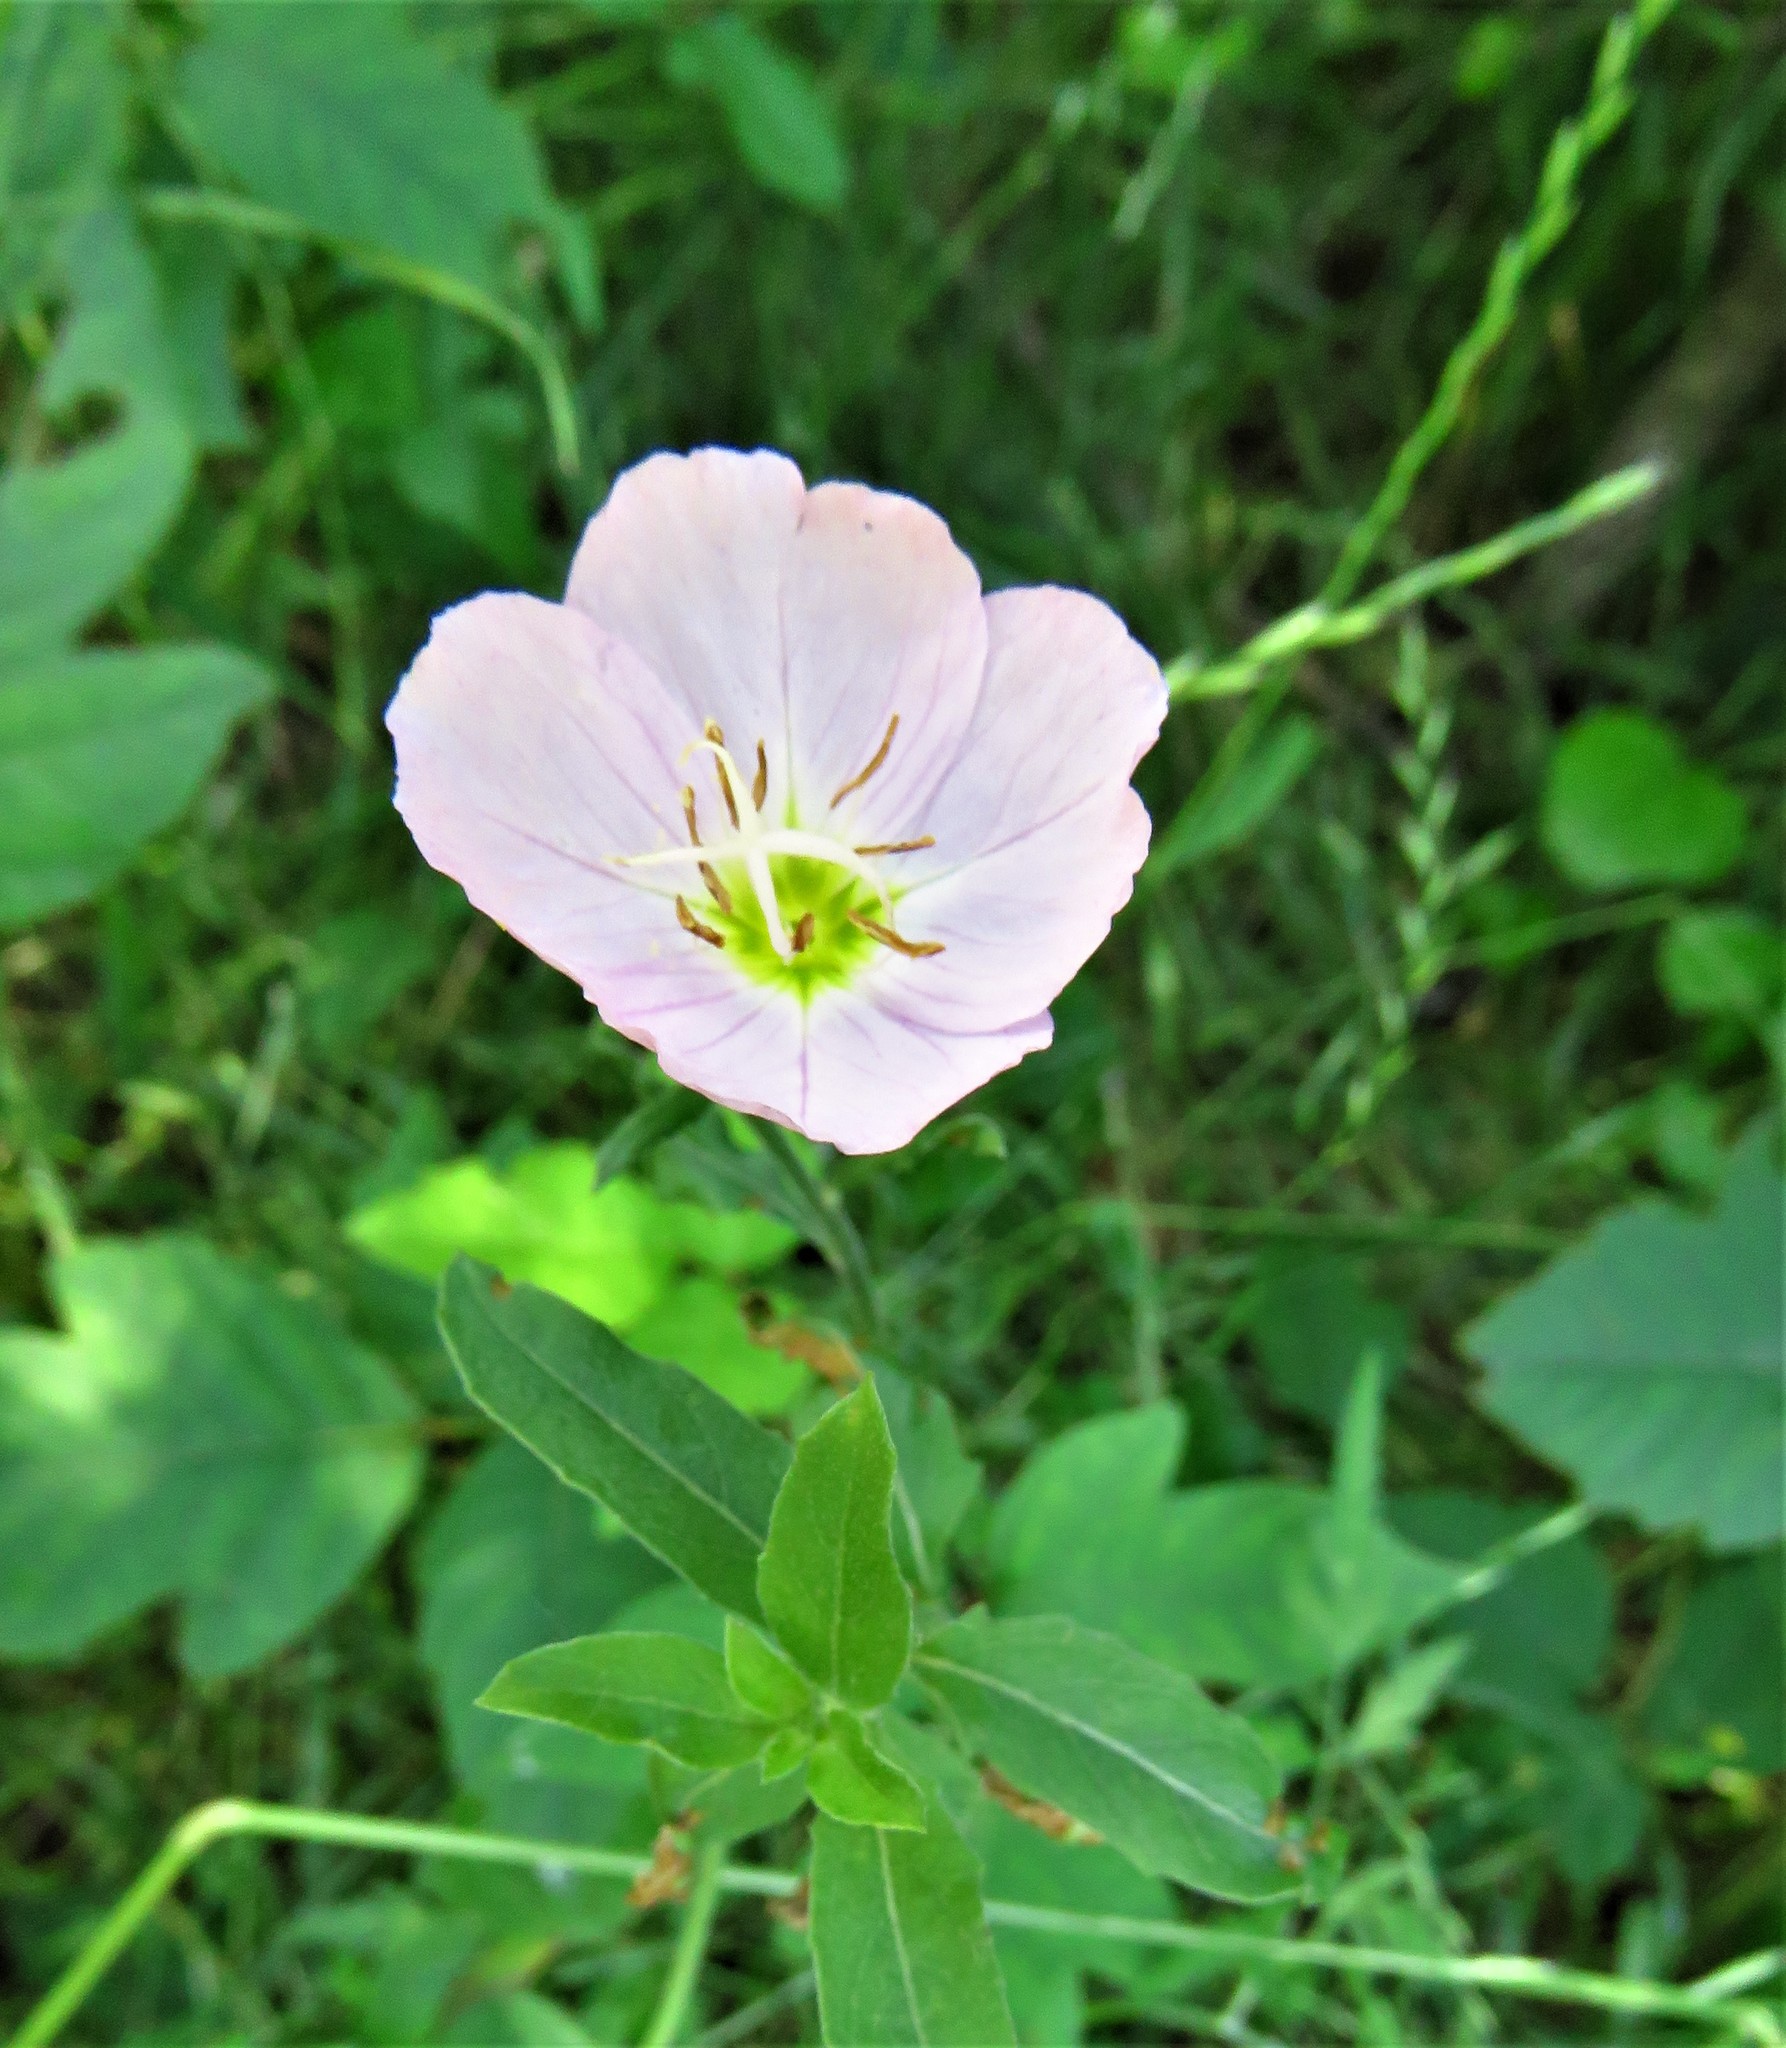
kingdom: Plantae
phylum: Tracheophyta
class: Magnoliopsida
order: Myrtales
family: Onagraceae
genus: Oenothera
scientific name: Oenothera speciosa
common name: White evening-primrose
